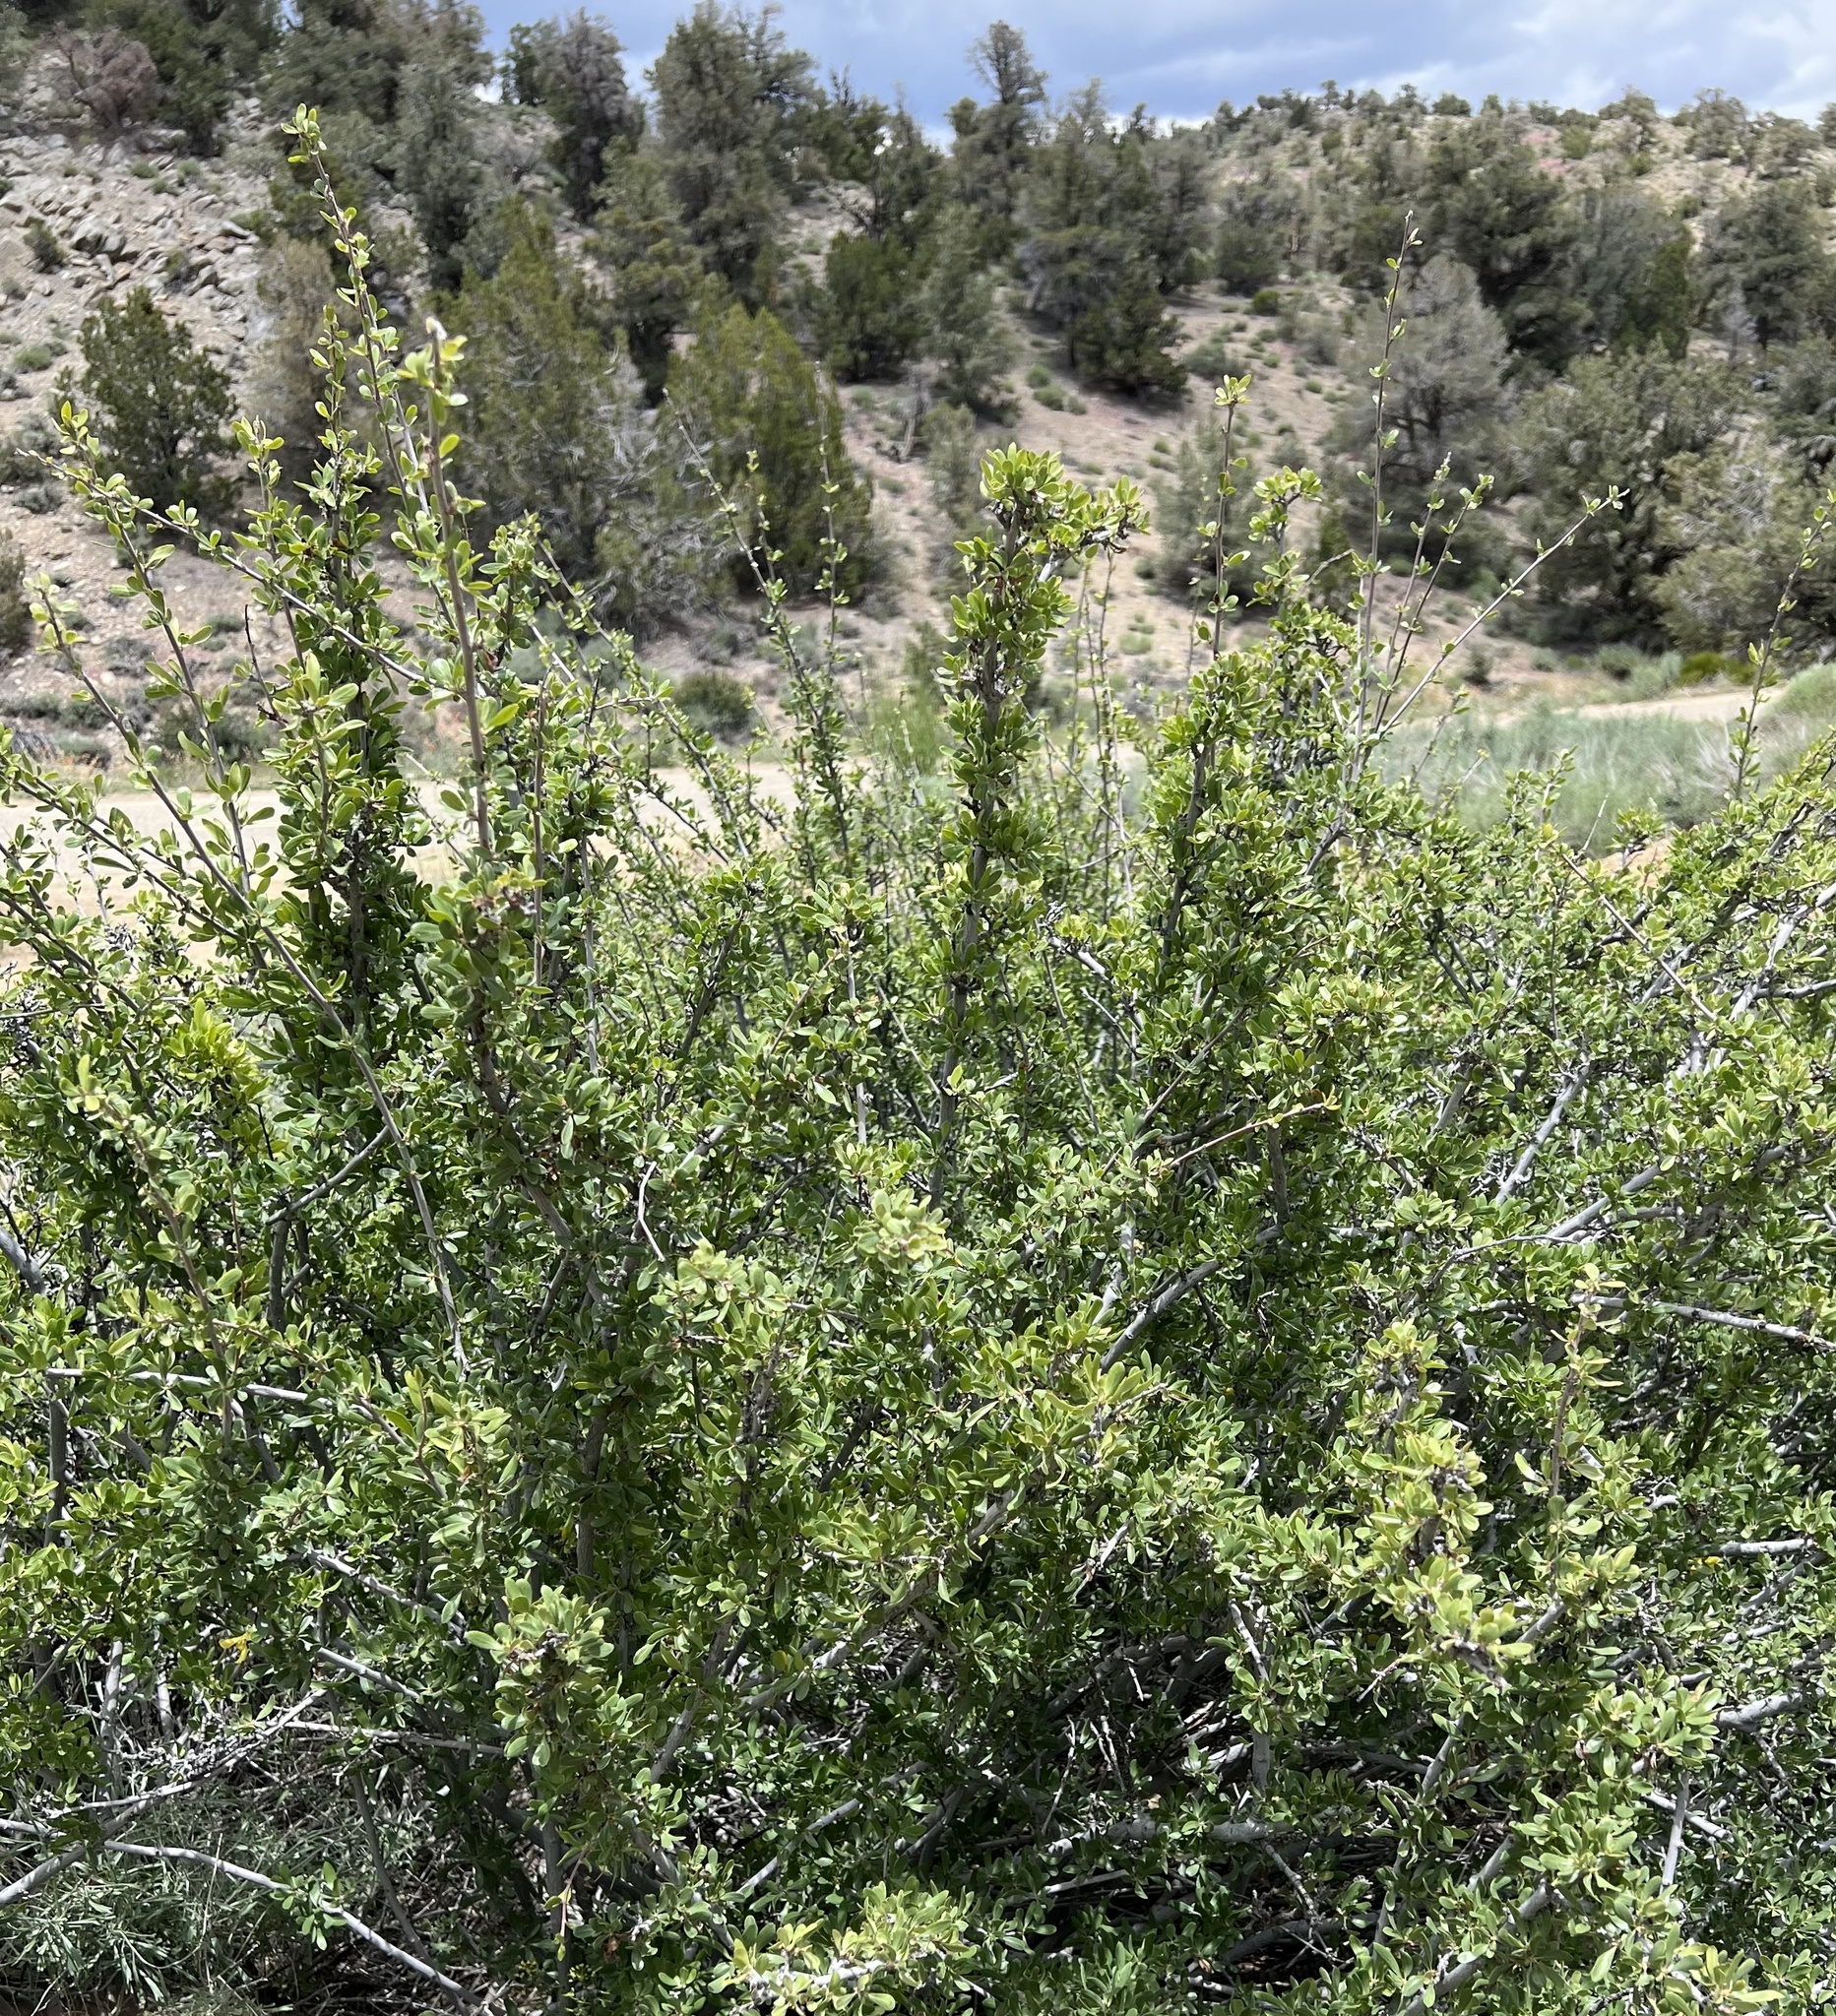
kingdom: Plantae
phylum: Tracheophyta
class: Magnoliopsida
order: Rosales
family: Rosaceae
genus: Amelanchier
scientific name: Amelanchier ramosissima
